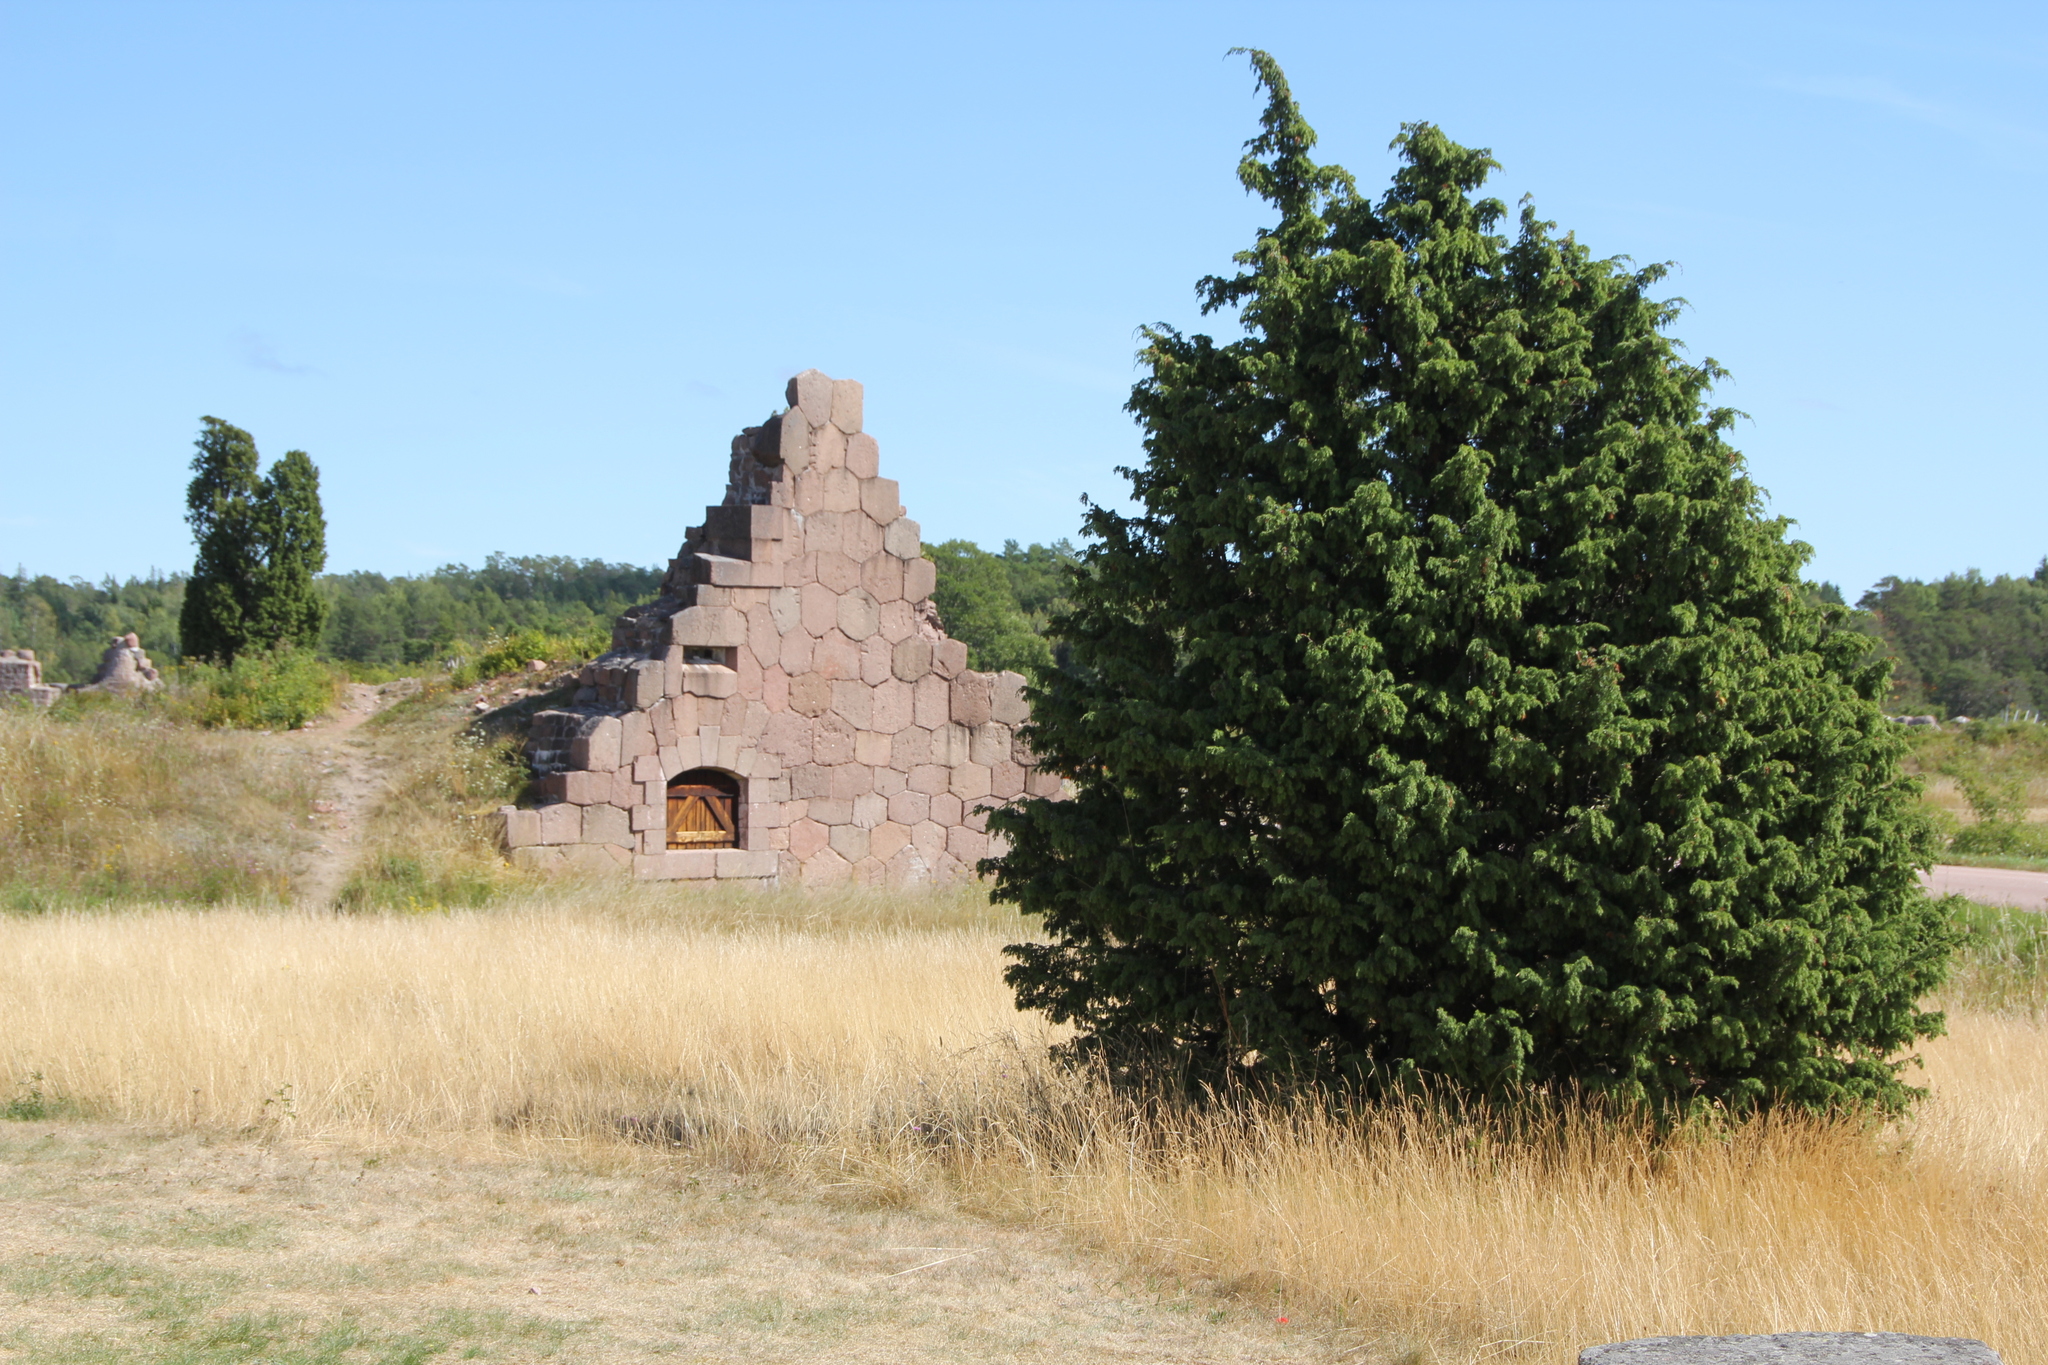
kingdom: Plantae
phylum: Tracheophyta
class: Pinopsida
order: Pinales
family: Cupressaceae
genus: Juniperus
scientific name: Juniperus communis
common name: Common juniper
